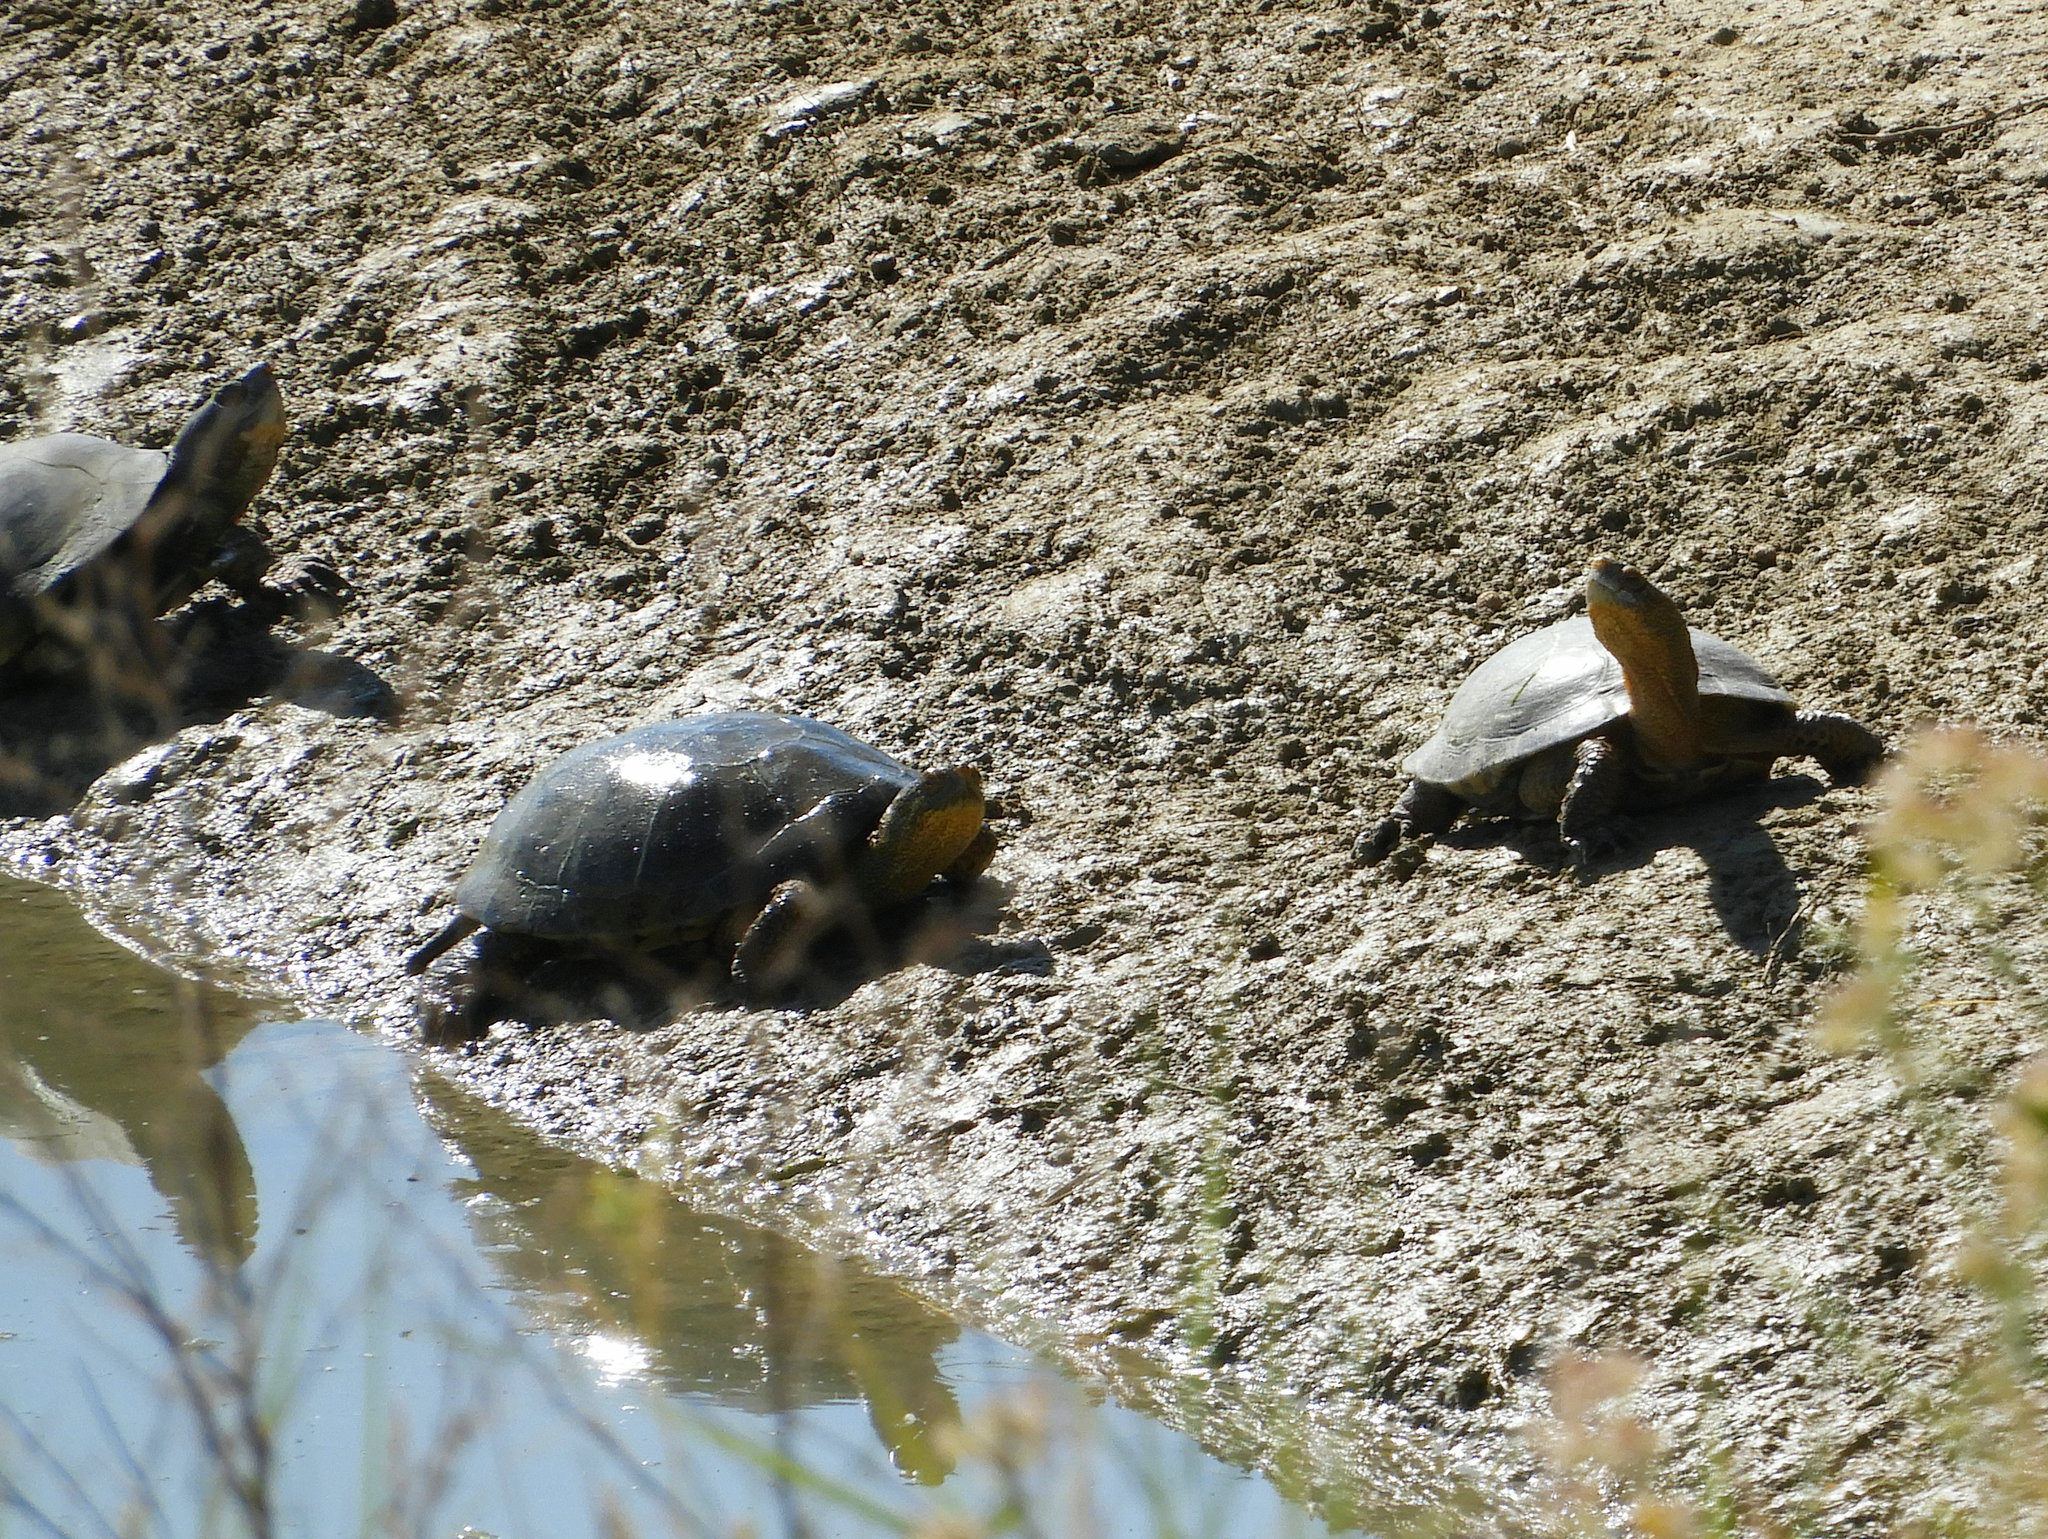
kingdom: Animalia
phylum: Chordata
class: Testudines
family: Emydidae
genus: Actinemys
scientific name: Actinemys marmorata
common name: Western pond turtle
